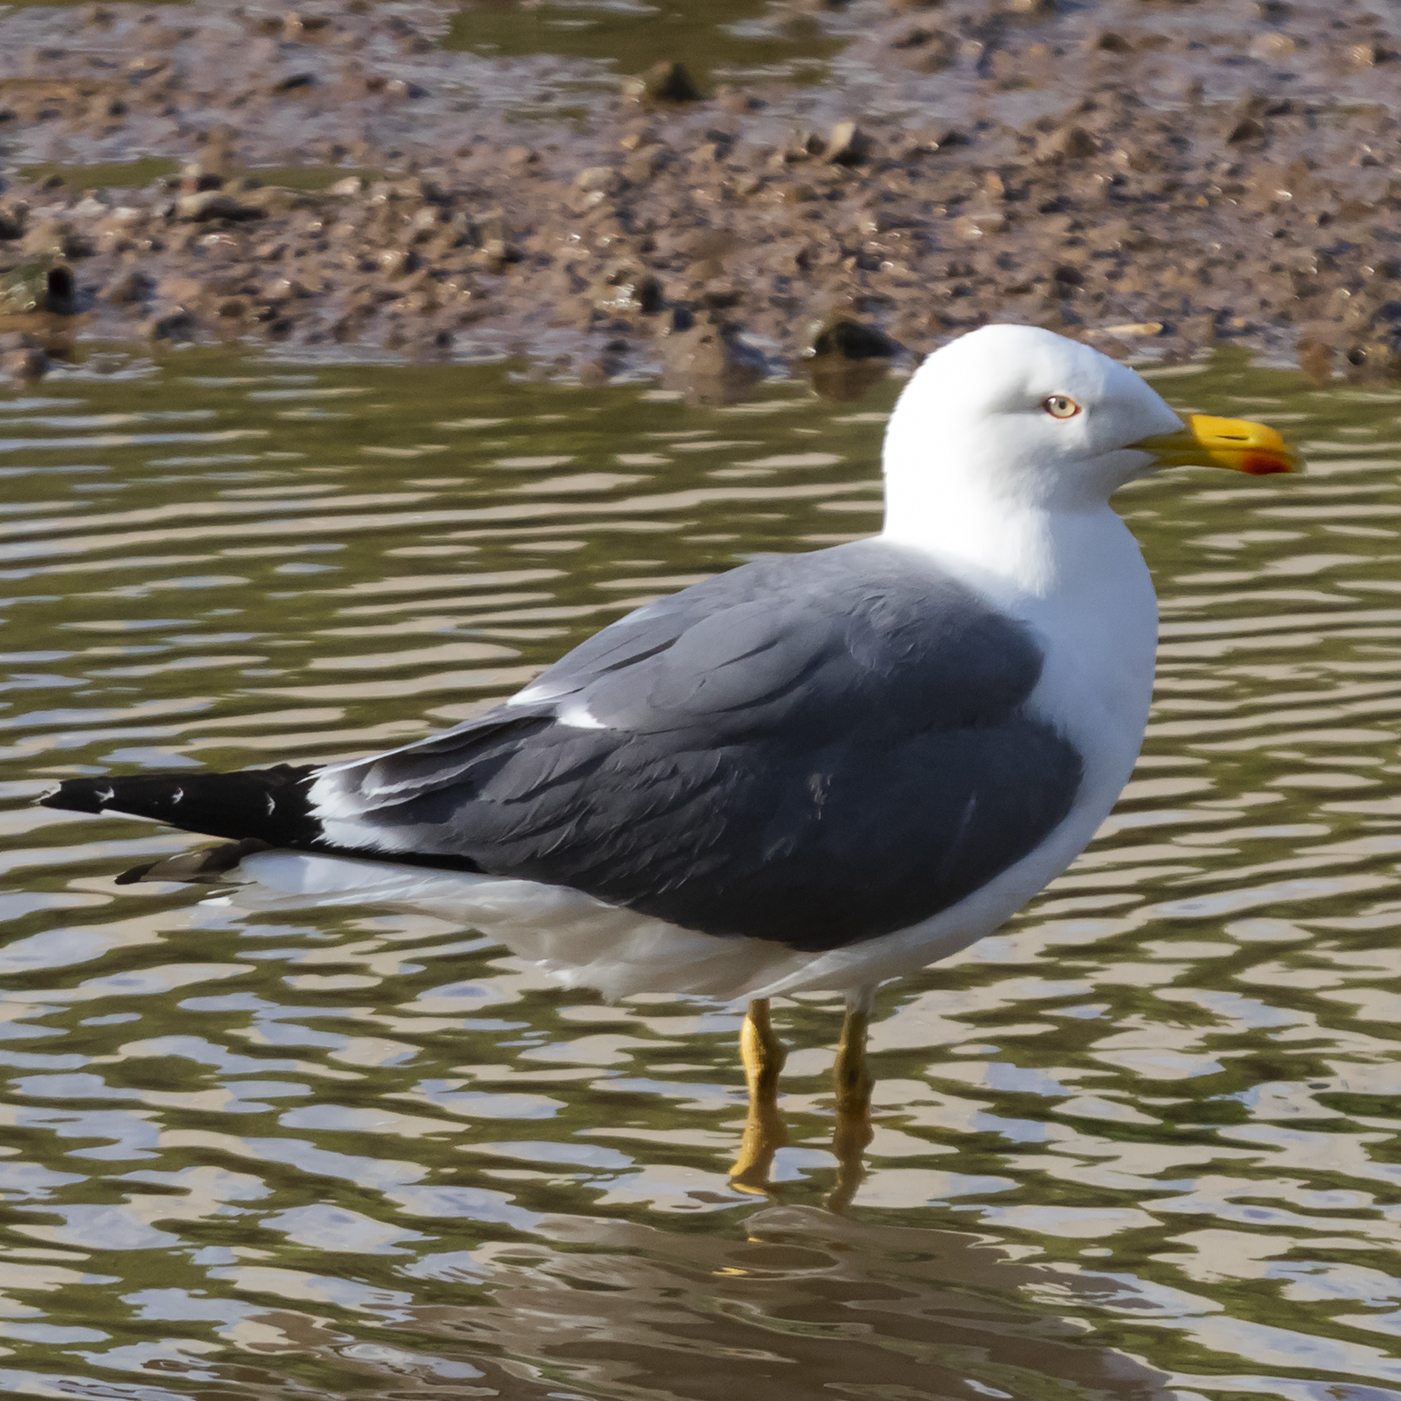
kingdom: Animalia
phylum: Chordata
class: Aves
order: Charadriiformes
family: Laridae
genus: Larus
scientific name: Larus fuscus
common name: Lesser black-backed gull
